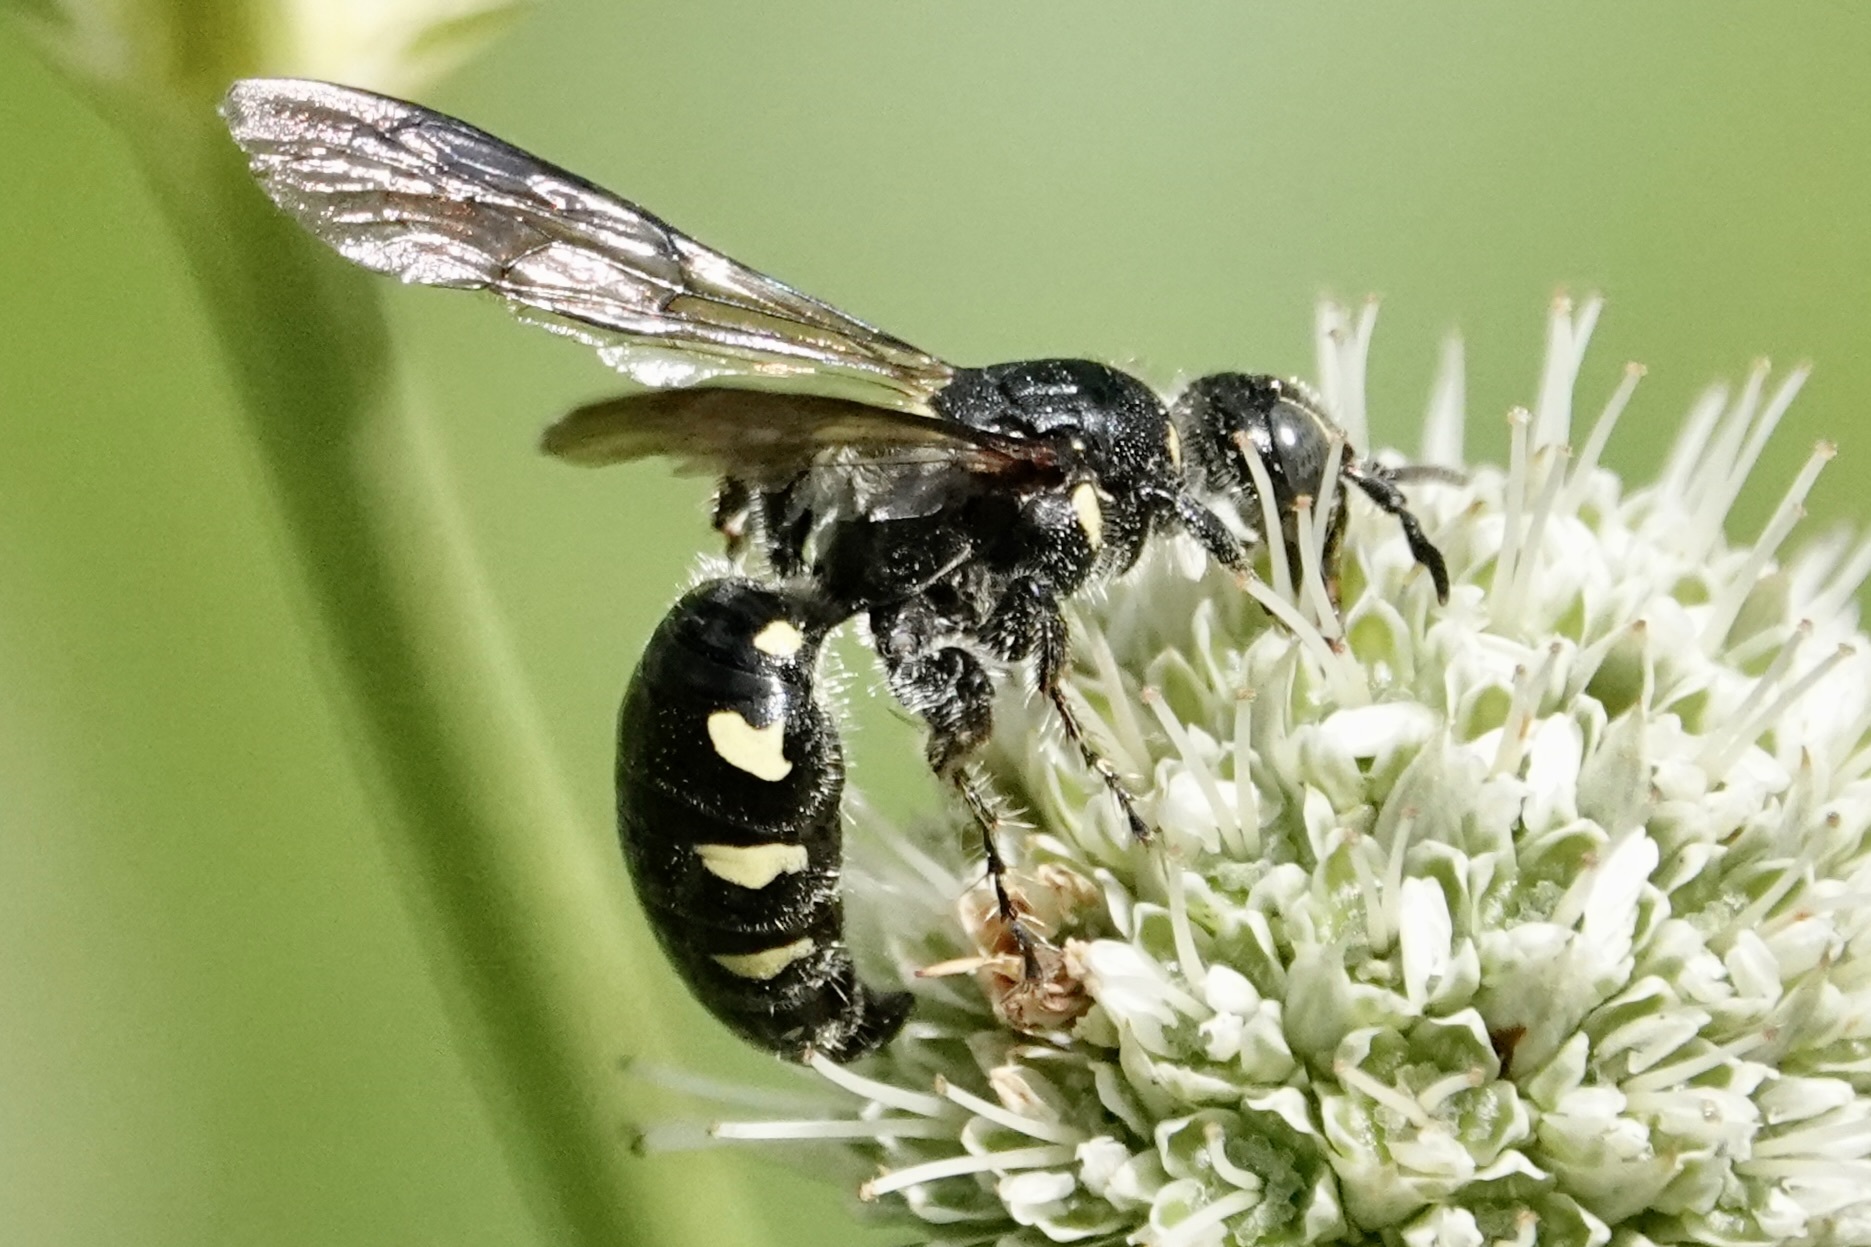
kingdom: Animalia
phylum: Arthropoda
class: Insecta
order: Hymenoptera
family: Tiphiidae
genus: Myzinum
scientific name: Myzinum obscurum
